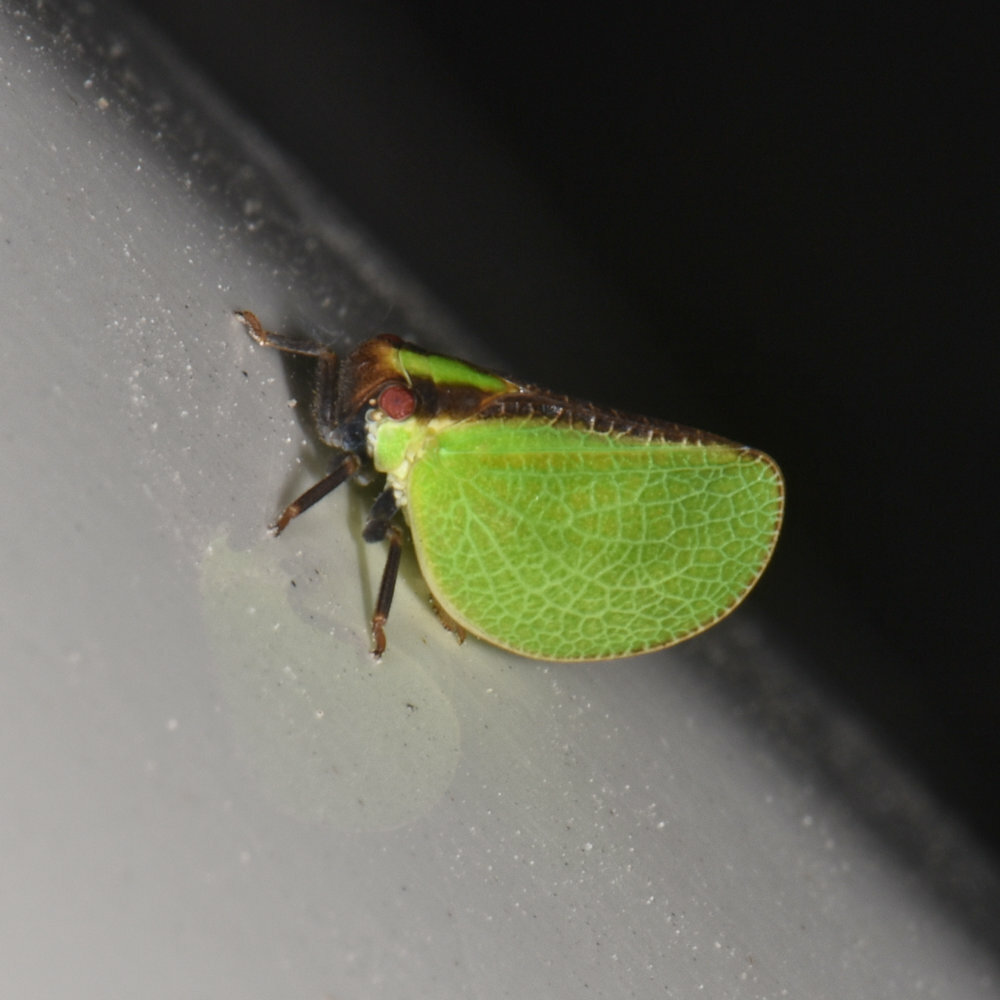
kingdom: Animalia
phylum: Arthropoda
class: Insecta
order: Hemiptera
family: Acanaloniidae
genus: Acanalonia
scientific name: Acanalonia bivittata
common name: Two-striped planthopper
